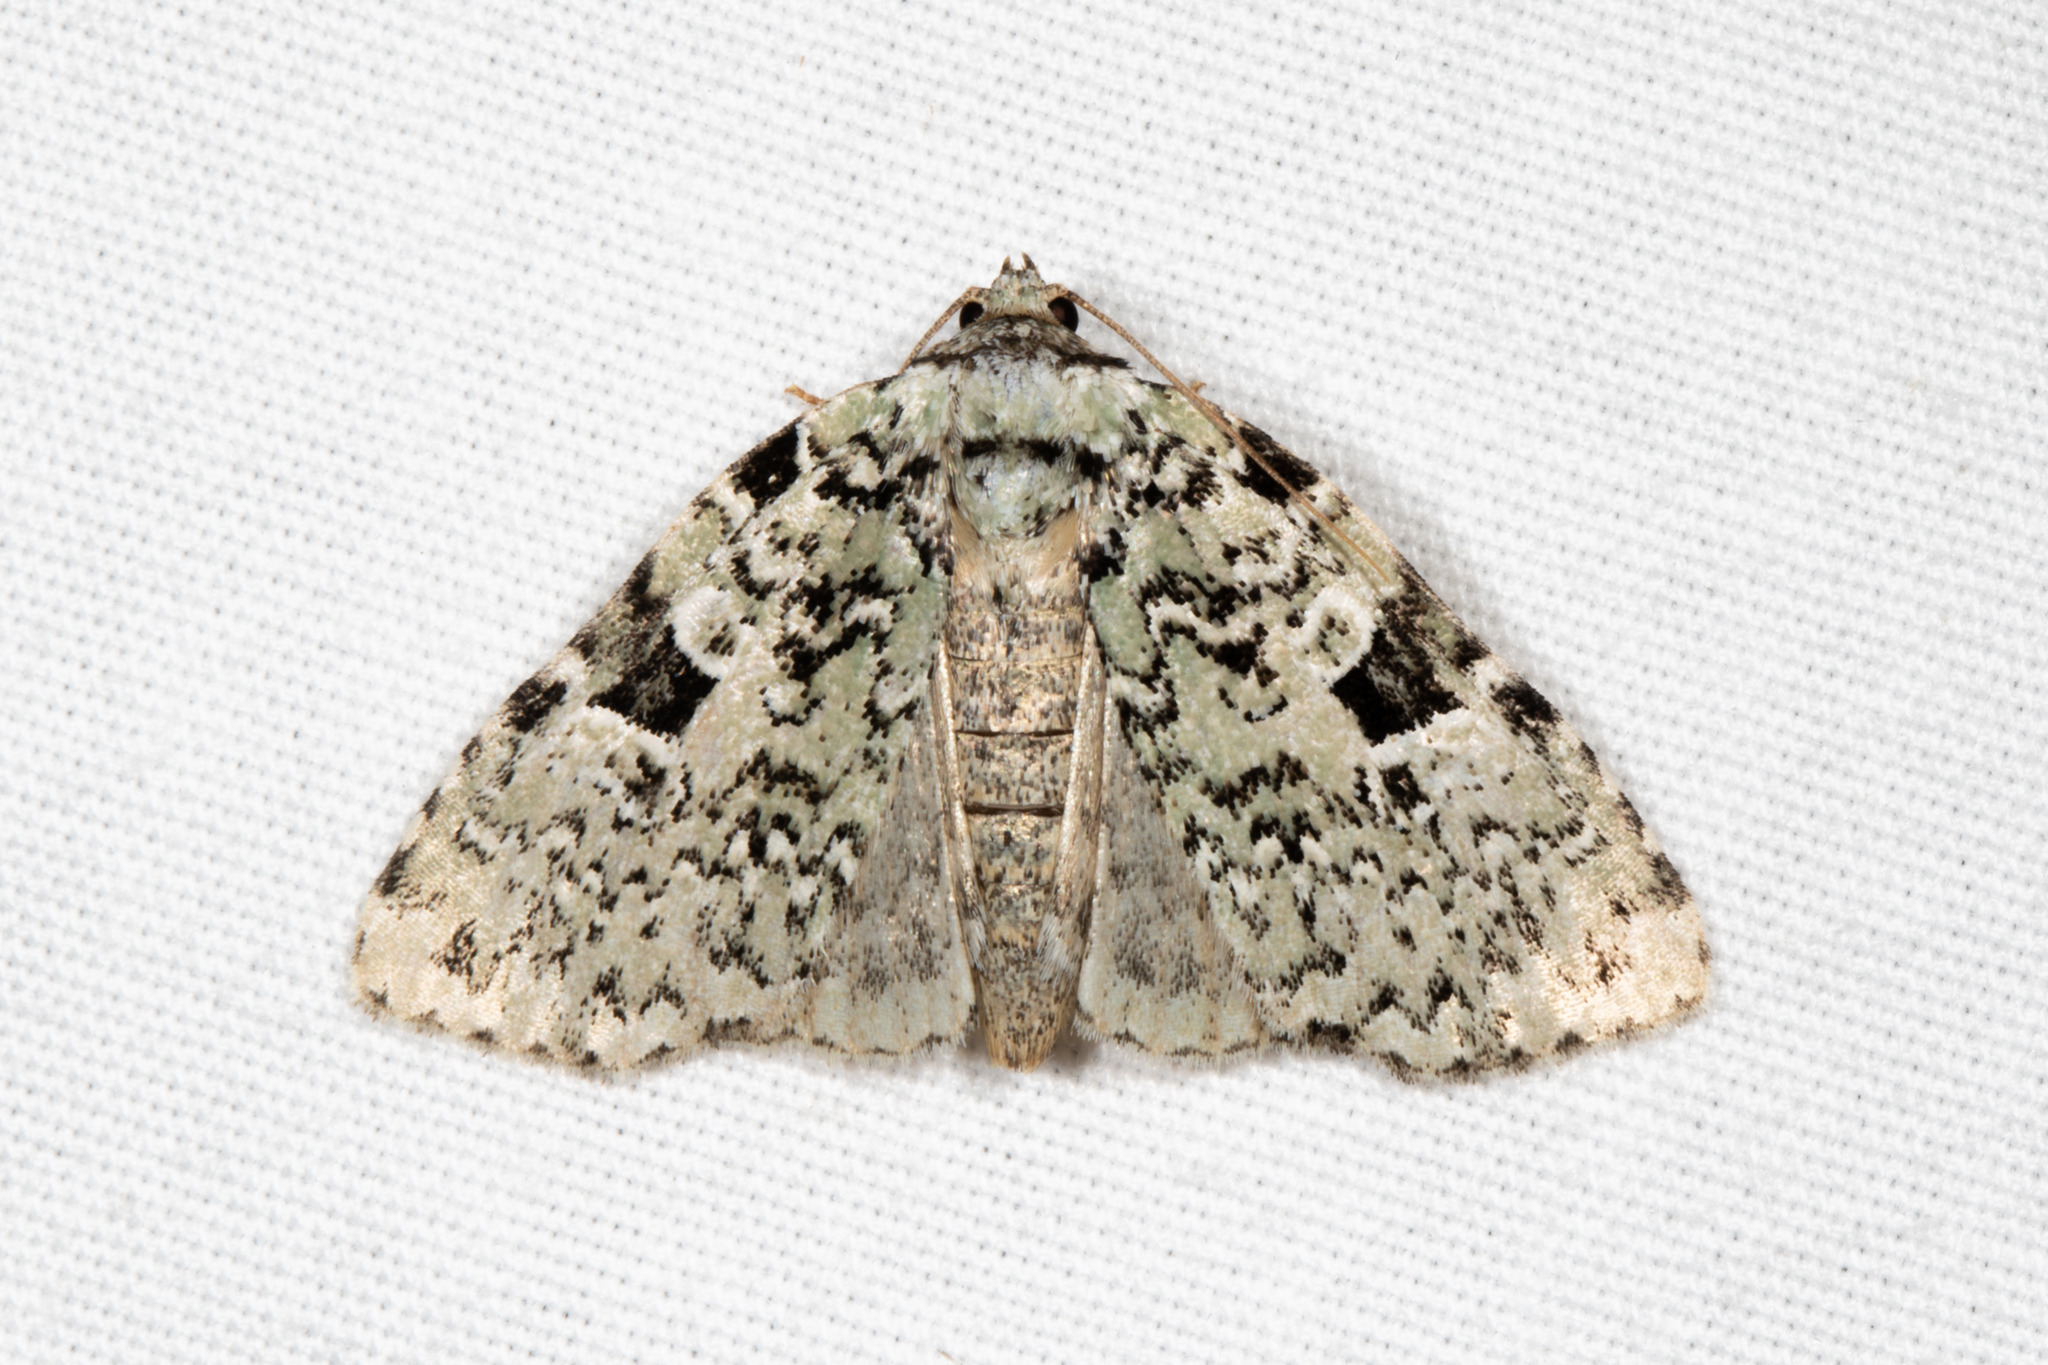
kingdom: Animalia
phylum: Arthropoda
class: Insecta
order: Lepidoptera
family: Noctuidae
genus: Leuconycta
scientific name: Leuconycta diphteroides
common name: Green leuconycta moth
